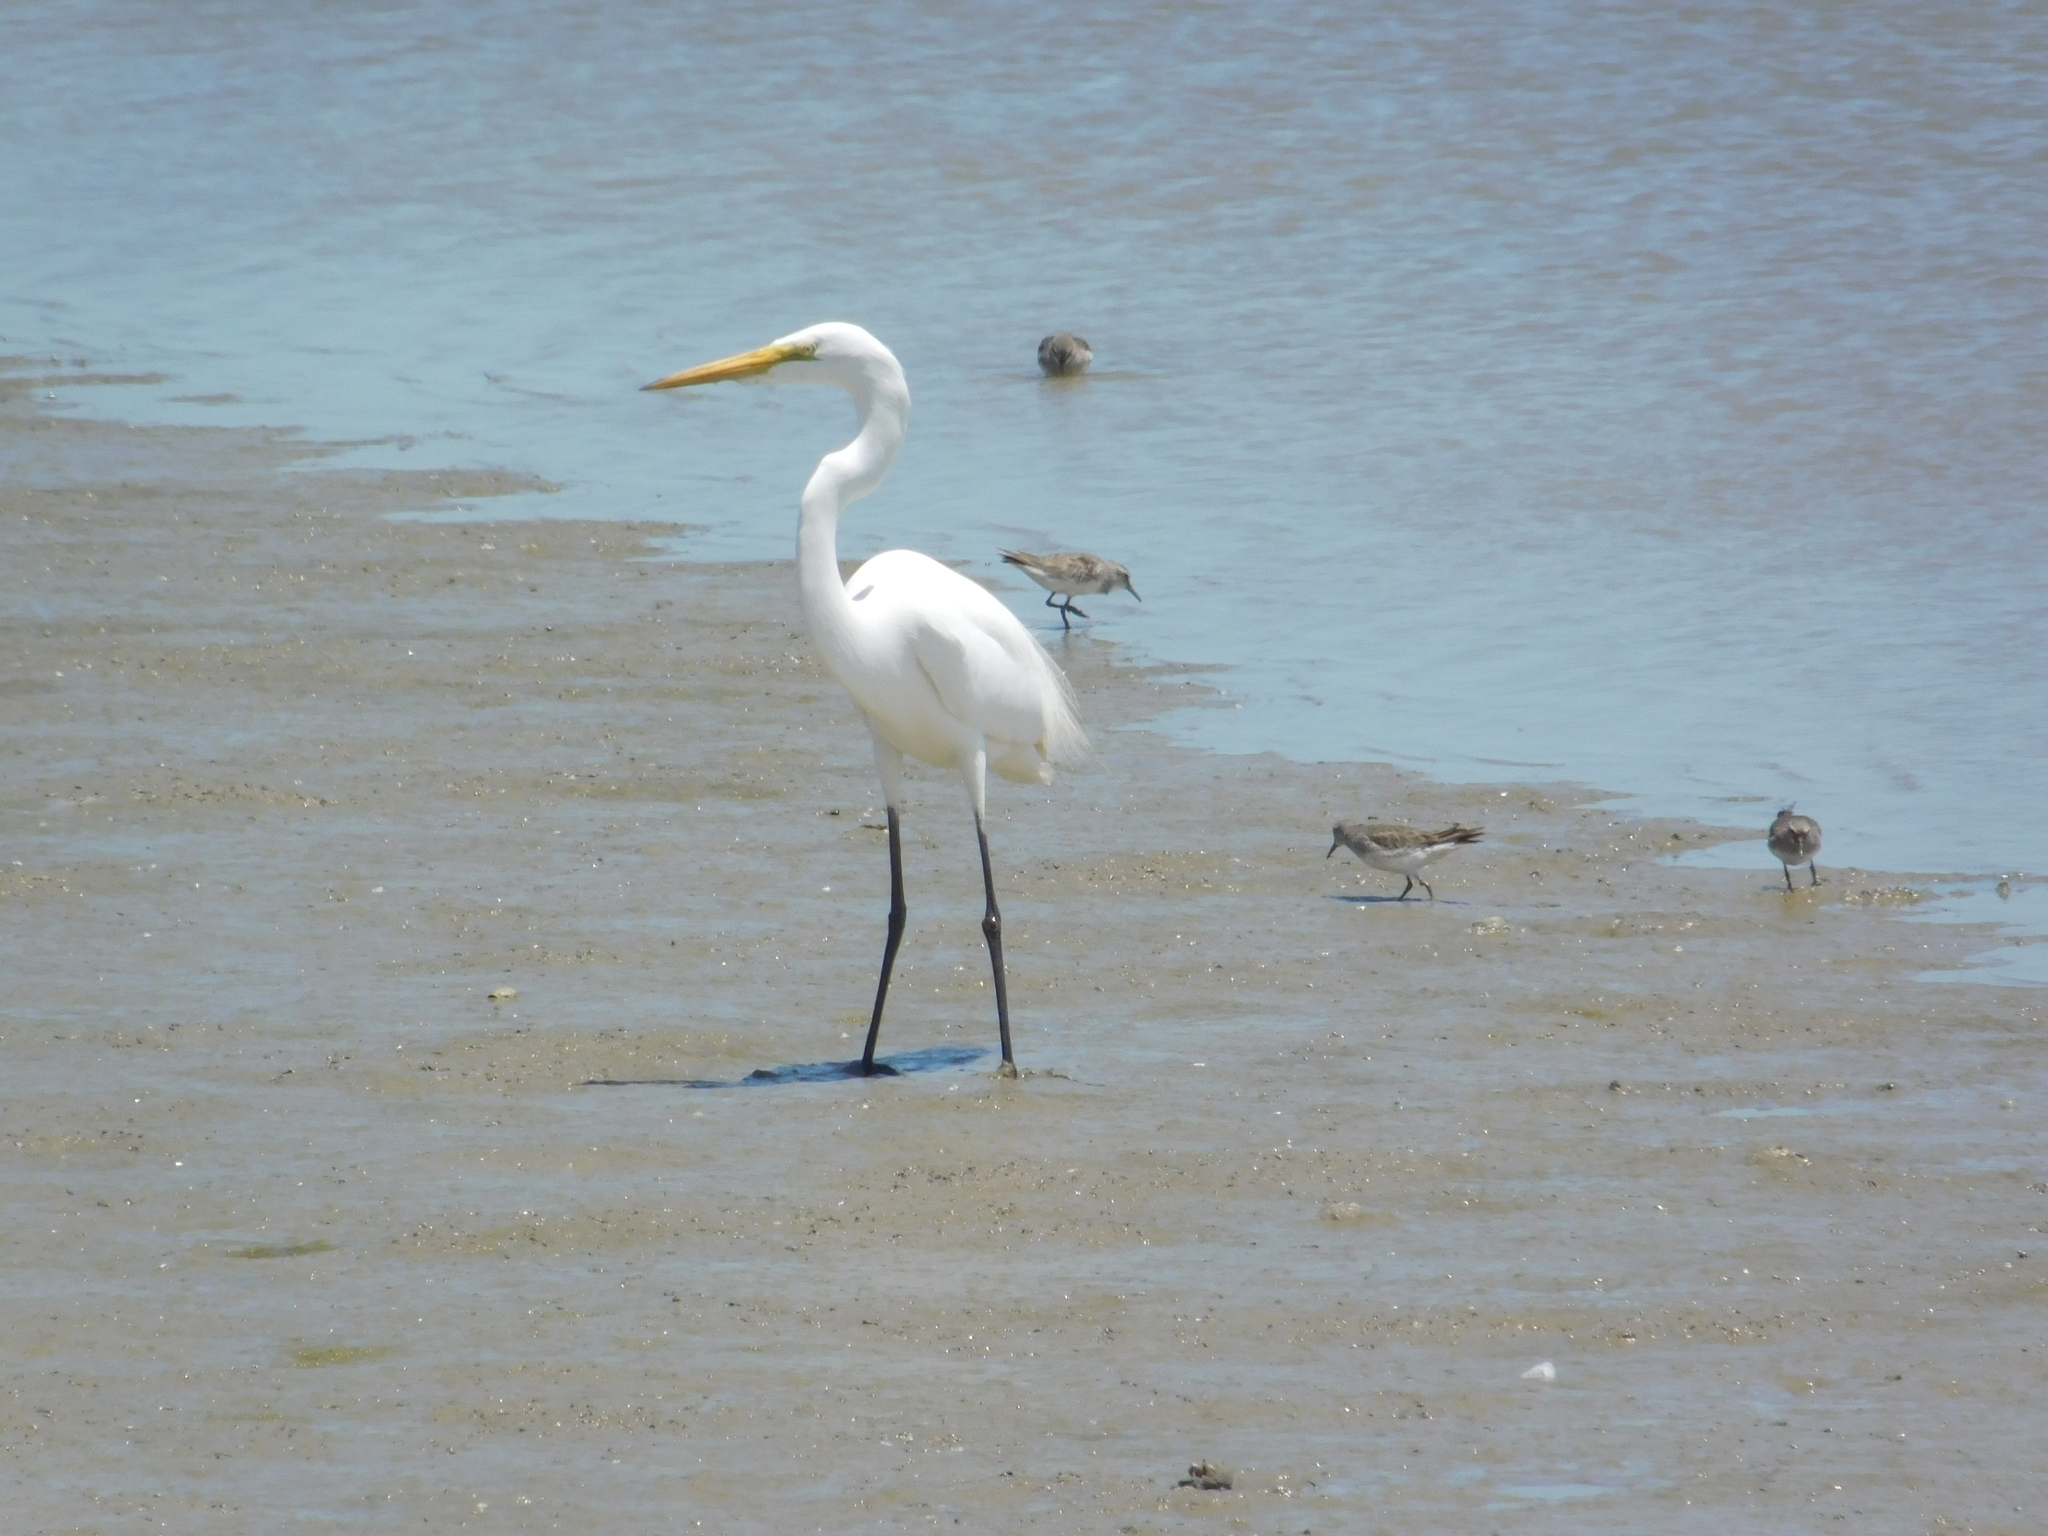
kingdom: Animalia
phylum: Chordata
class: Aves
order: Pelecaniformes
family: Ardeidae
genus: Ardea
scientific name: Ardea alba
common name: Great egret
